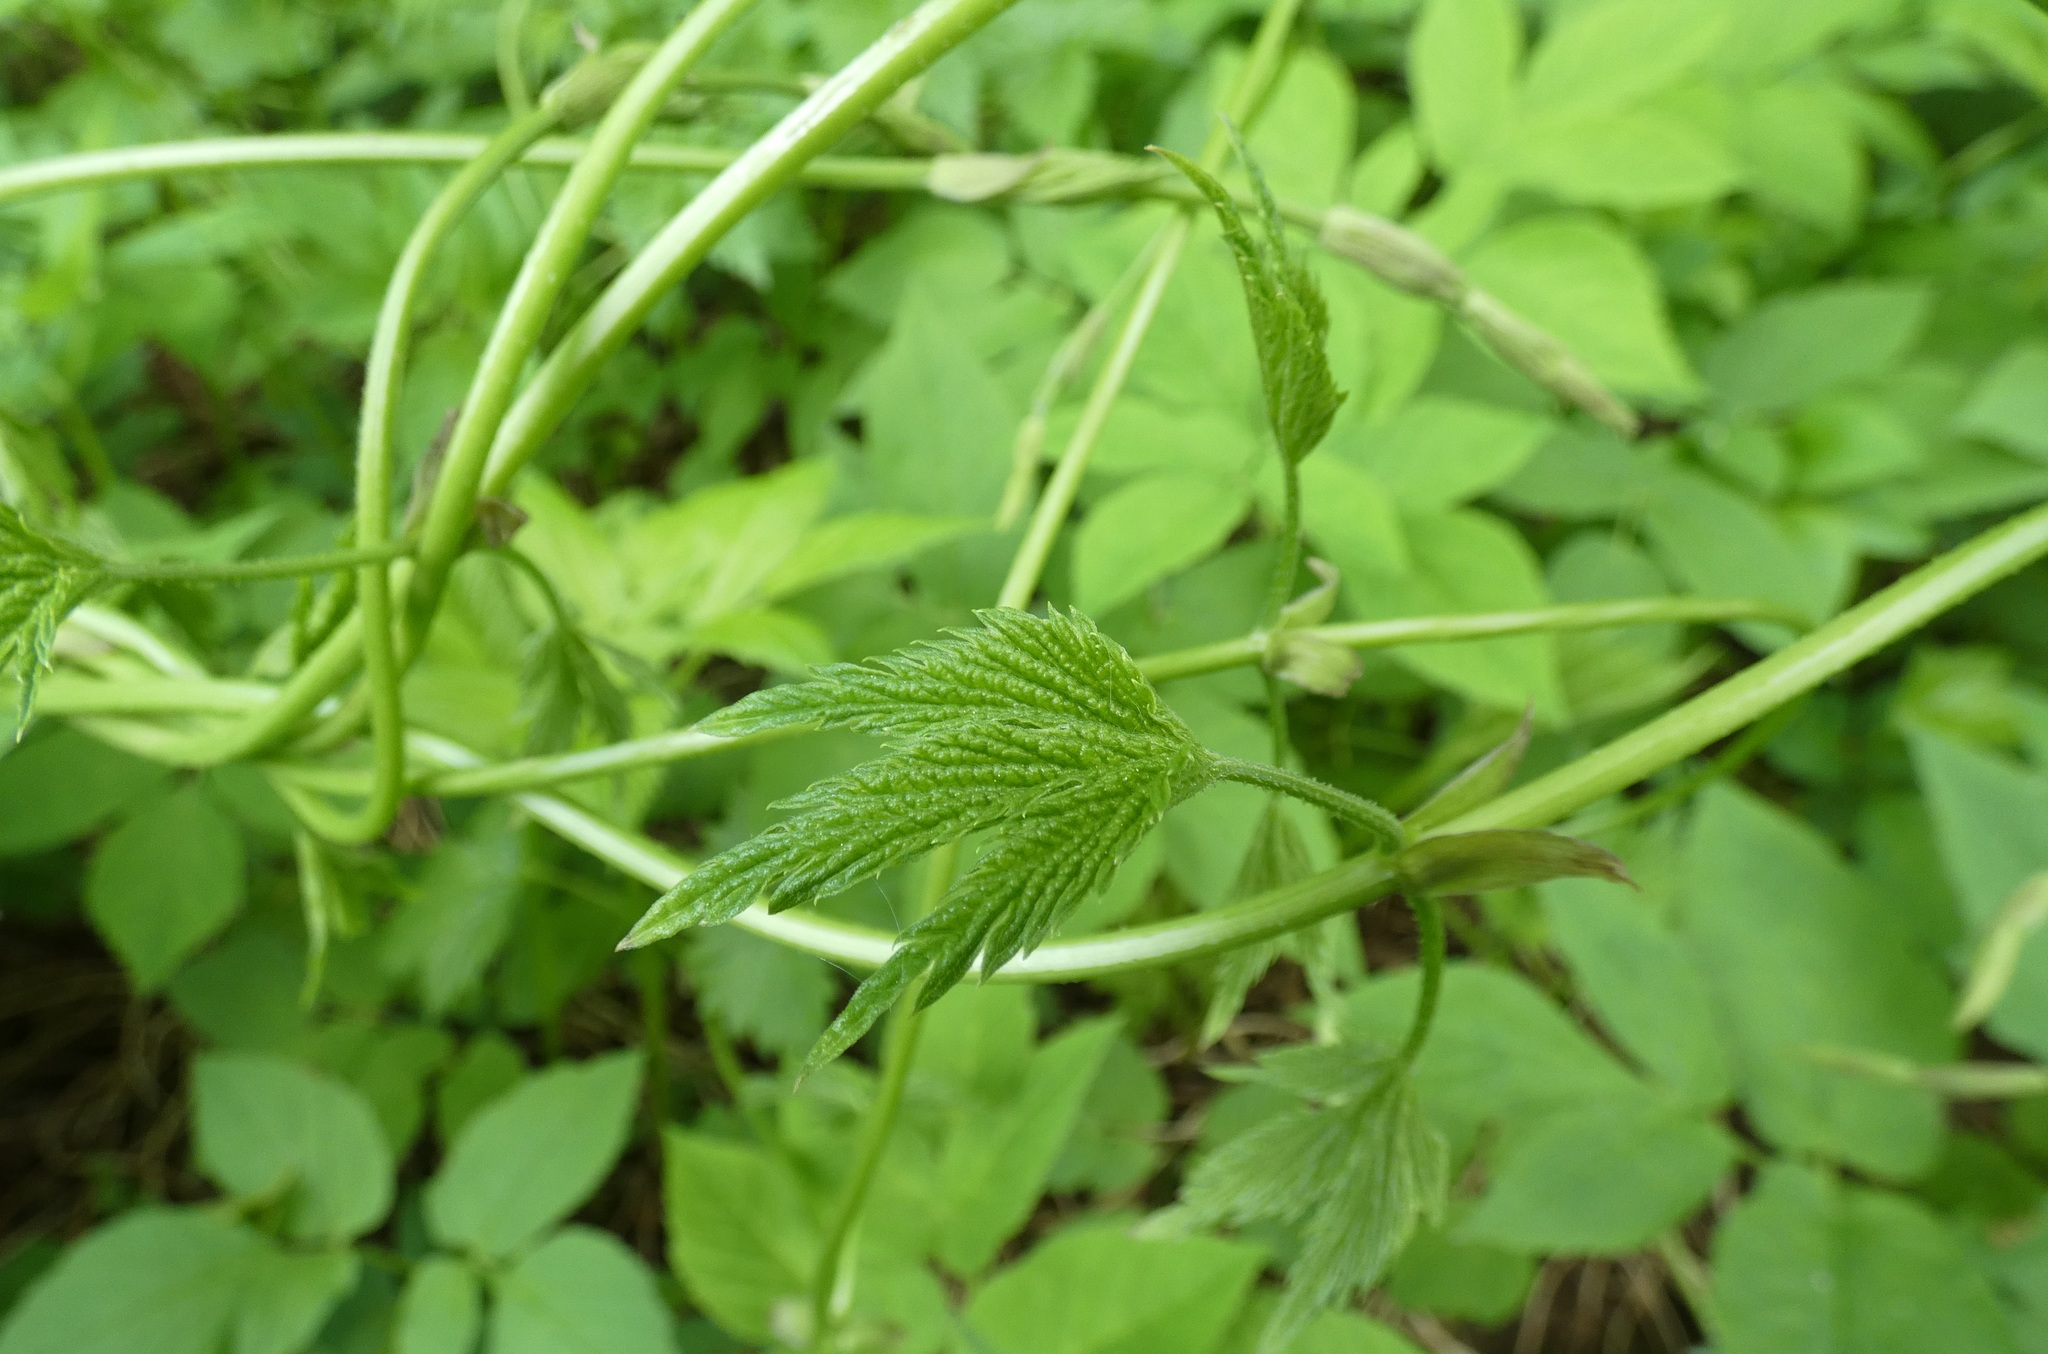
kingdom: Plantae
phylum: Tracheophyta
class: Magnoliopsida
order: Rosales
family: Cannabaceae
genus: Humulus
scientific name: Humulus lupulus
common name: Hop
